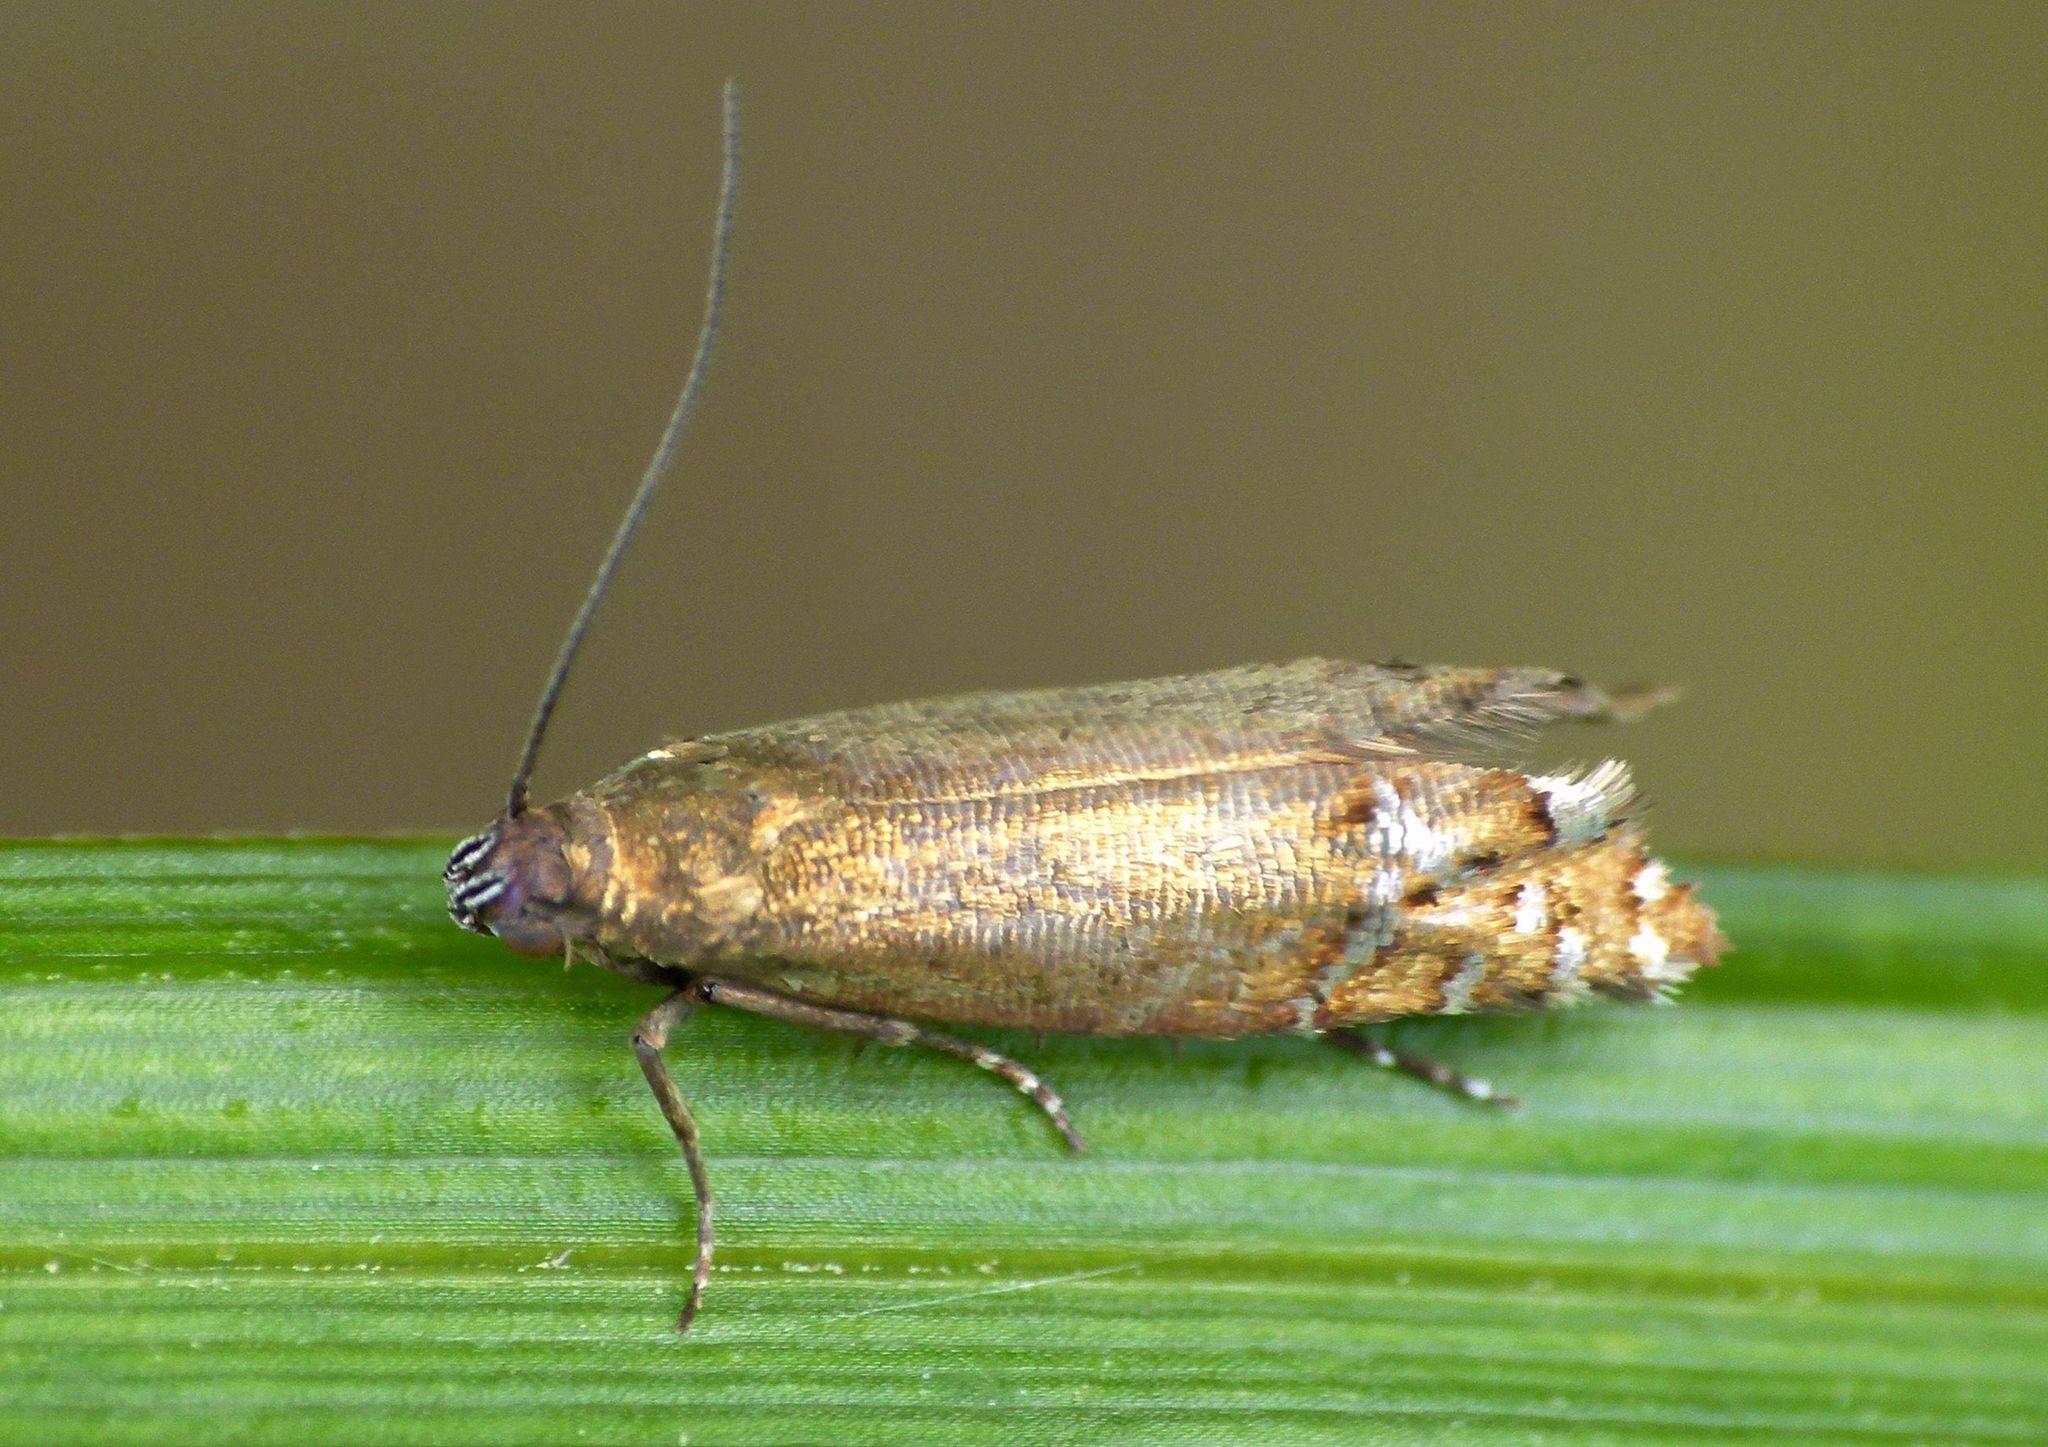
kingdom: Animalia
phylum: Arthropoda
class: Insecta
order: Lepidoptera
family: Glyphipterigidae
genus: Glyphipterix
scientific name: Glyphipterix astrapaea
